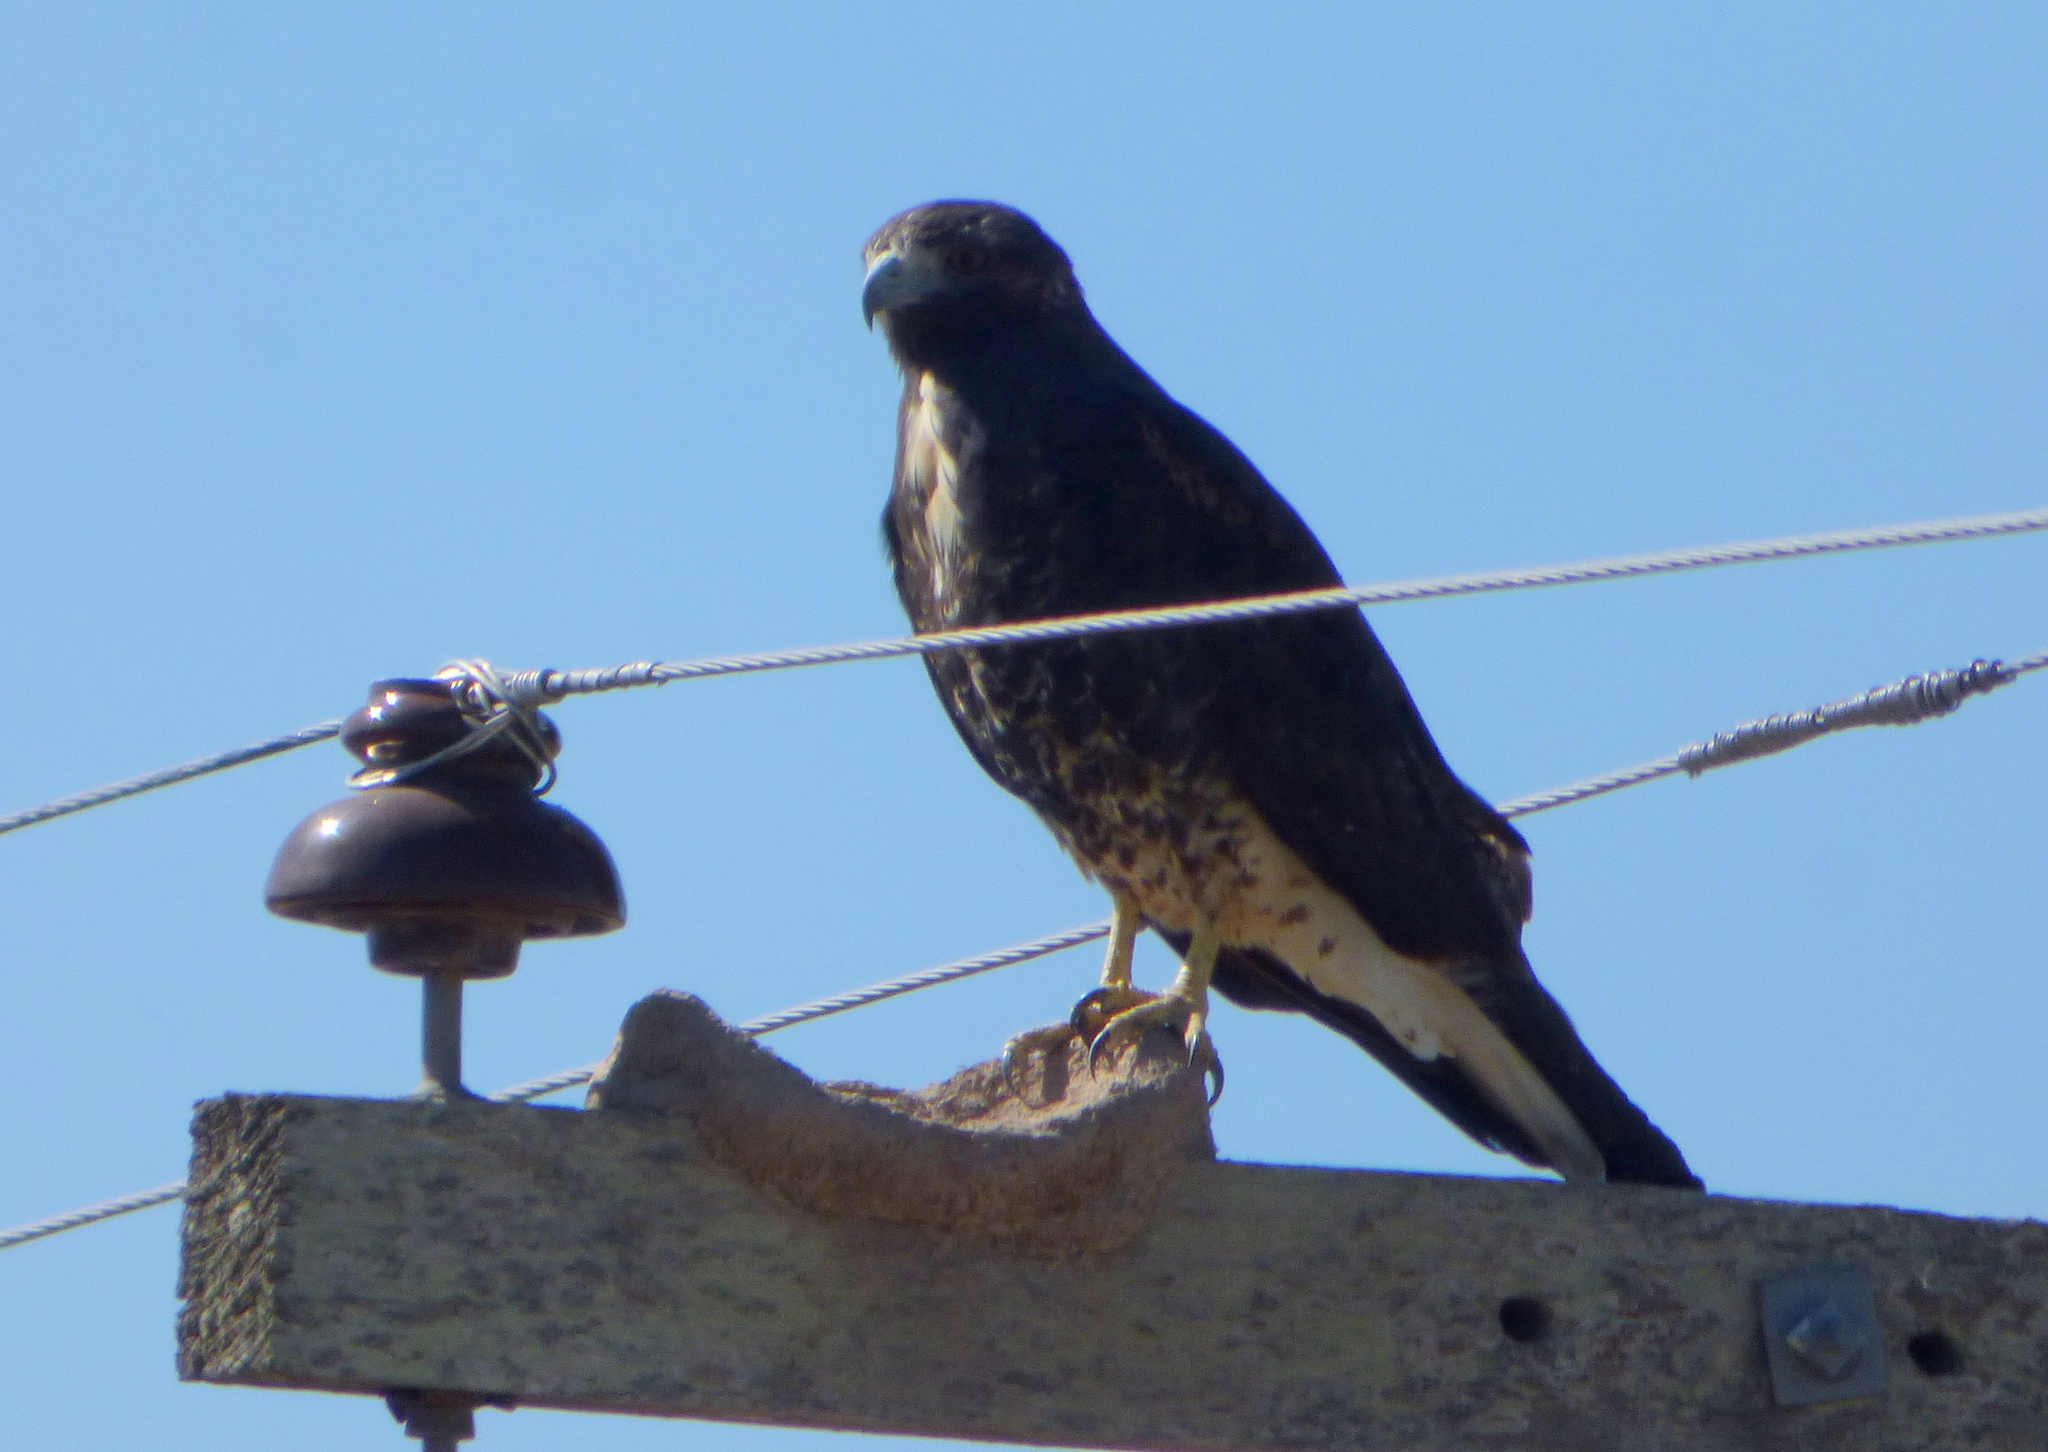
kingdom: Animalia
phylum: Chordata
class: Aves
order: Accipitriformes
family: Accipitridae
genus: Buteo
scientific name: Buteo albicaudatus
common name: White-tailed hawk
